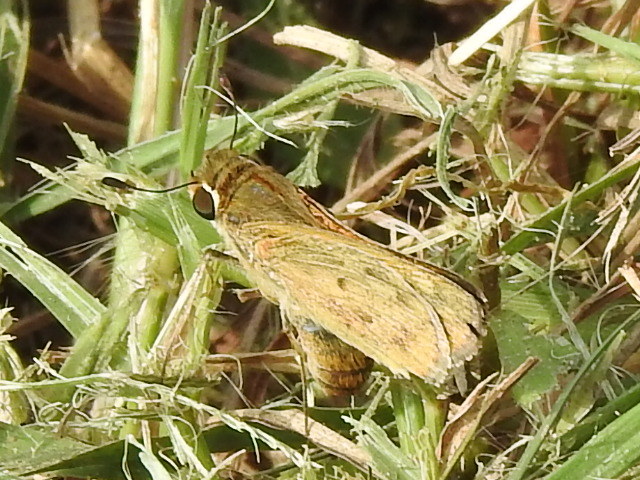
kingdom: Animalia
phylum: Arthropoda
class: Insecta
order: Lepidoptera
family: Hesperiidae
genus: Hylephila
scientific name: Hylephila phyleus
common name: Fiery skipper
